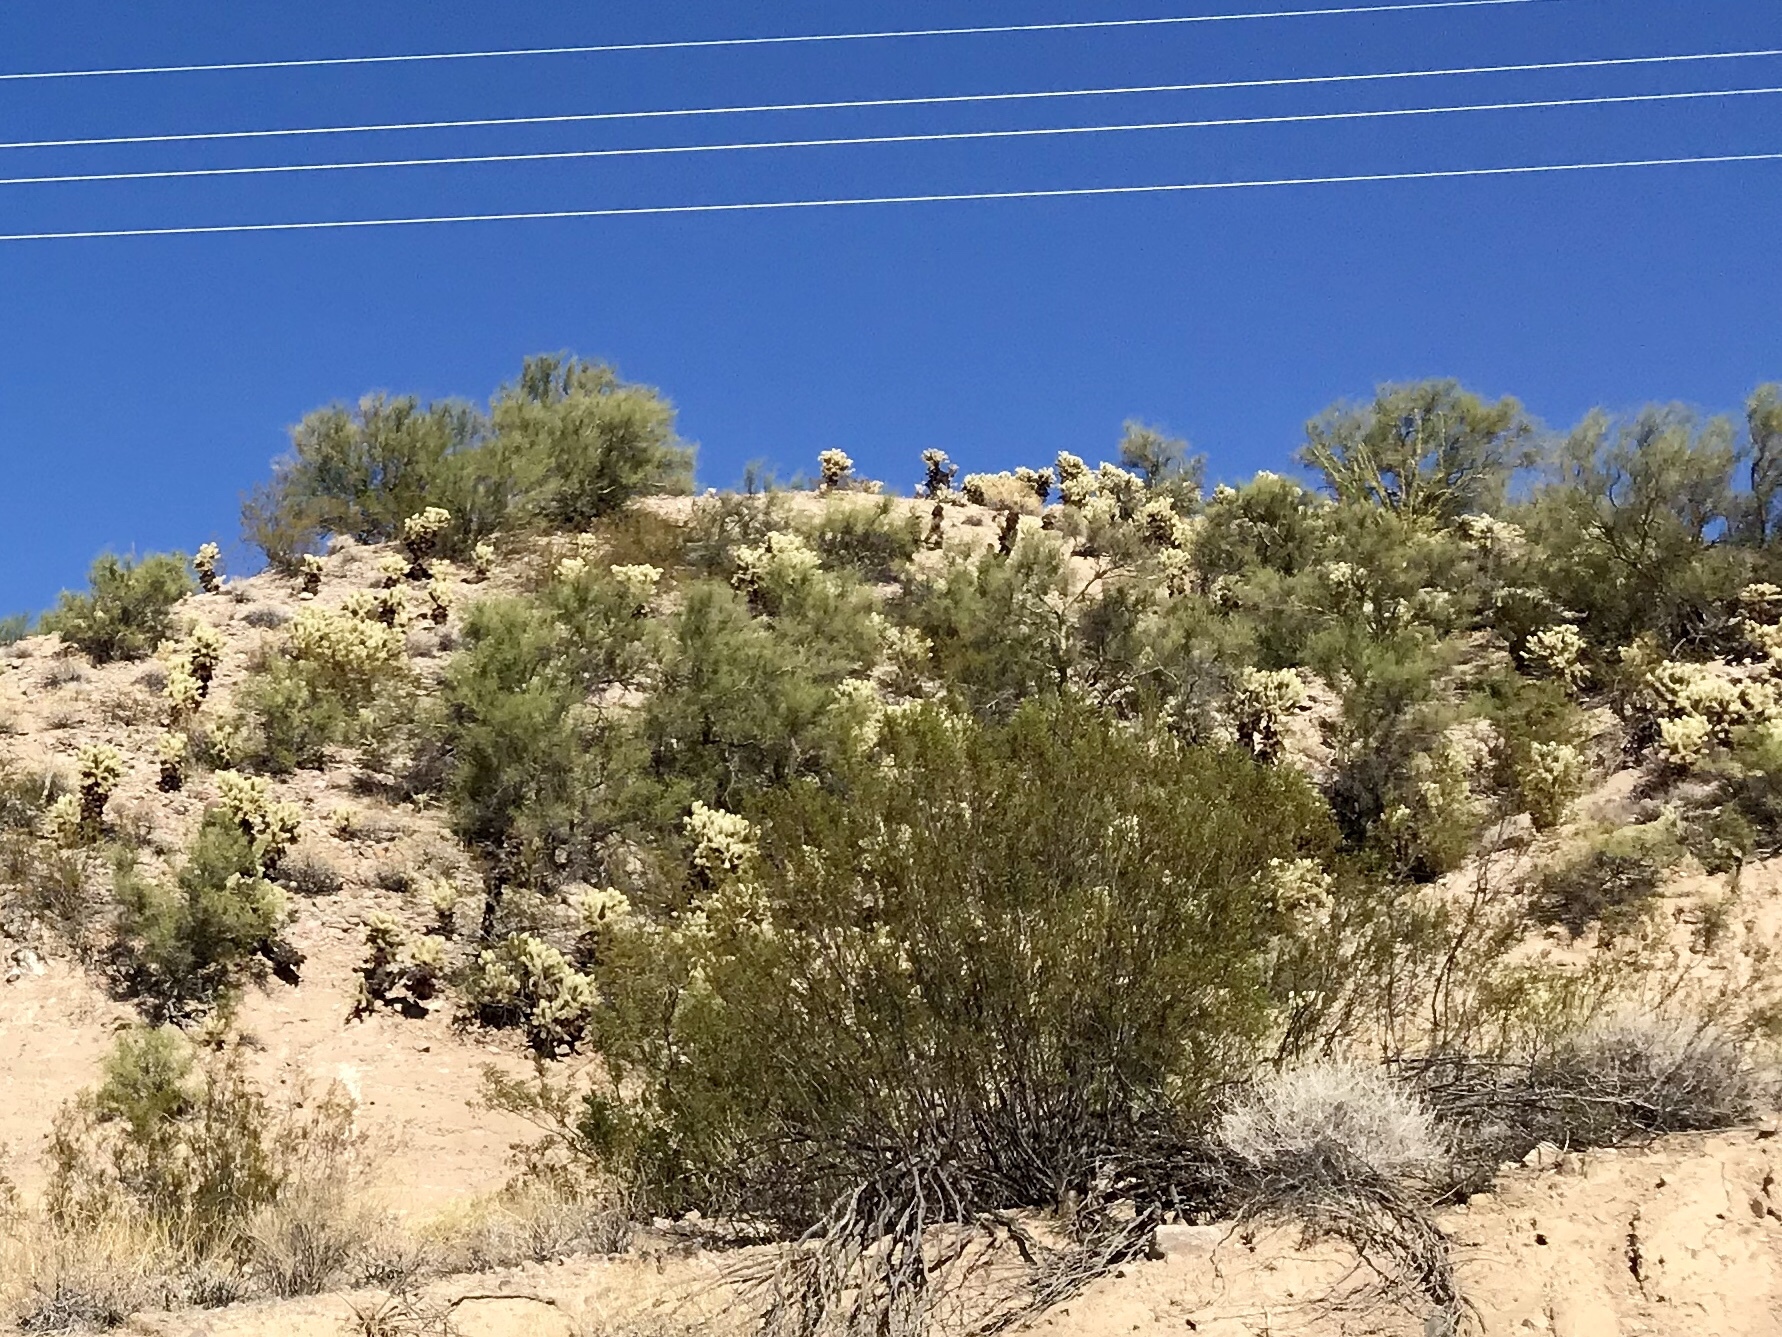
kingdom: Plantae
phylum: Tracheophyta
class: Magnoliopsida
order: Zygophyllales
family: Zygophyllaceae
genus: Larrea
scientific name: Larrea tridentata
